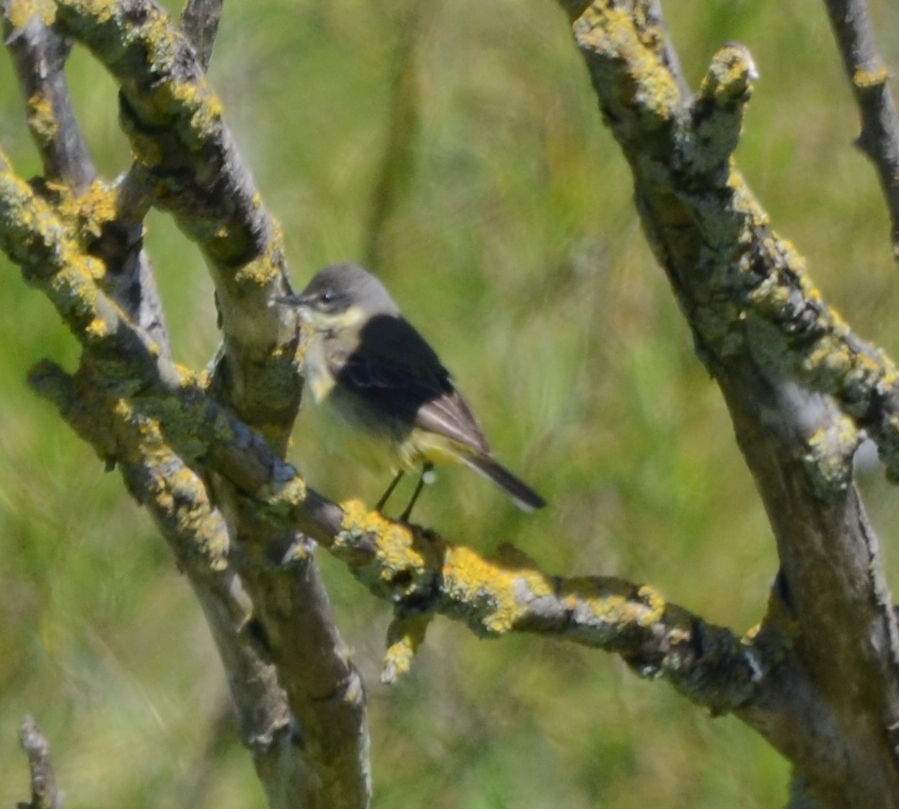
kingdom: Animalia
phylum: Chordata
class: Aves
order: Passeriformes
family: Motacillidae
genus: Motacilla
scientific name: Motacilla flava
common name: Western yellow wagtail
